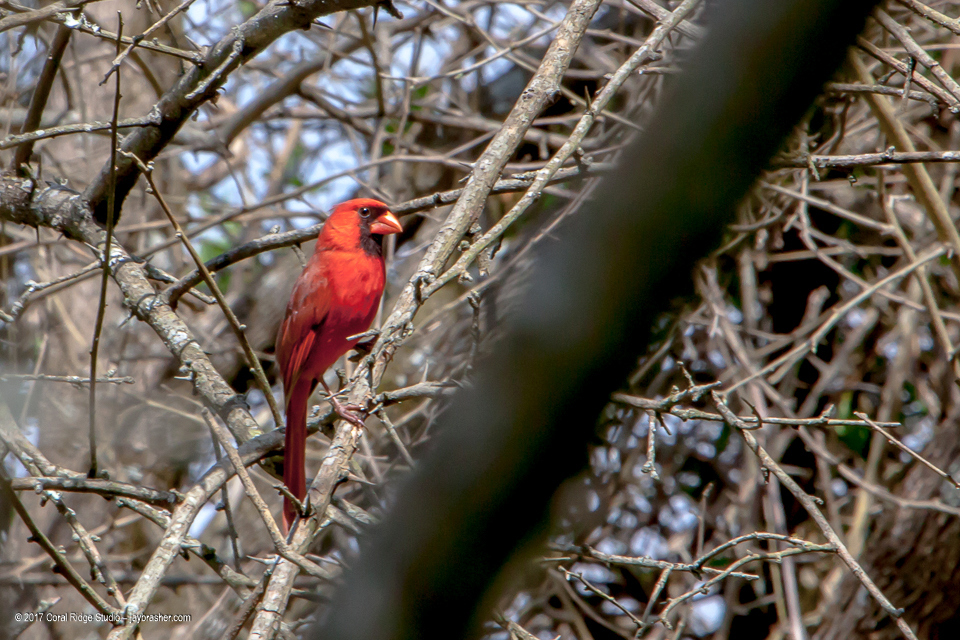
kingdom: Animalia
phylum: Chordata
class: Aves
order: Passeriformes
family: Cardinalidae
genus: Cardinalis
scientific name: Cardinalis cardinalis
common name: Northern cardinal
